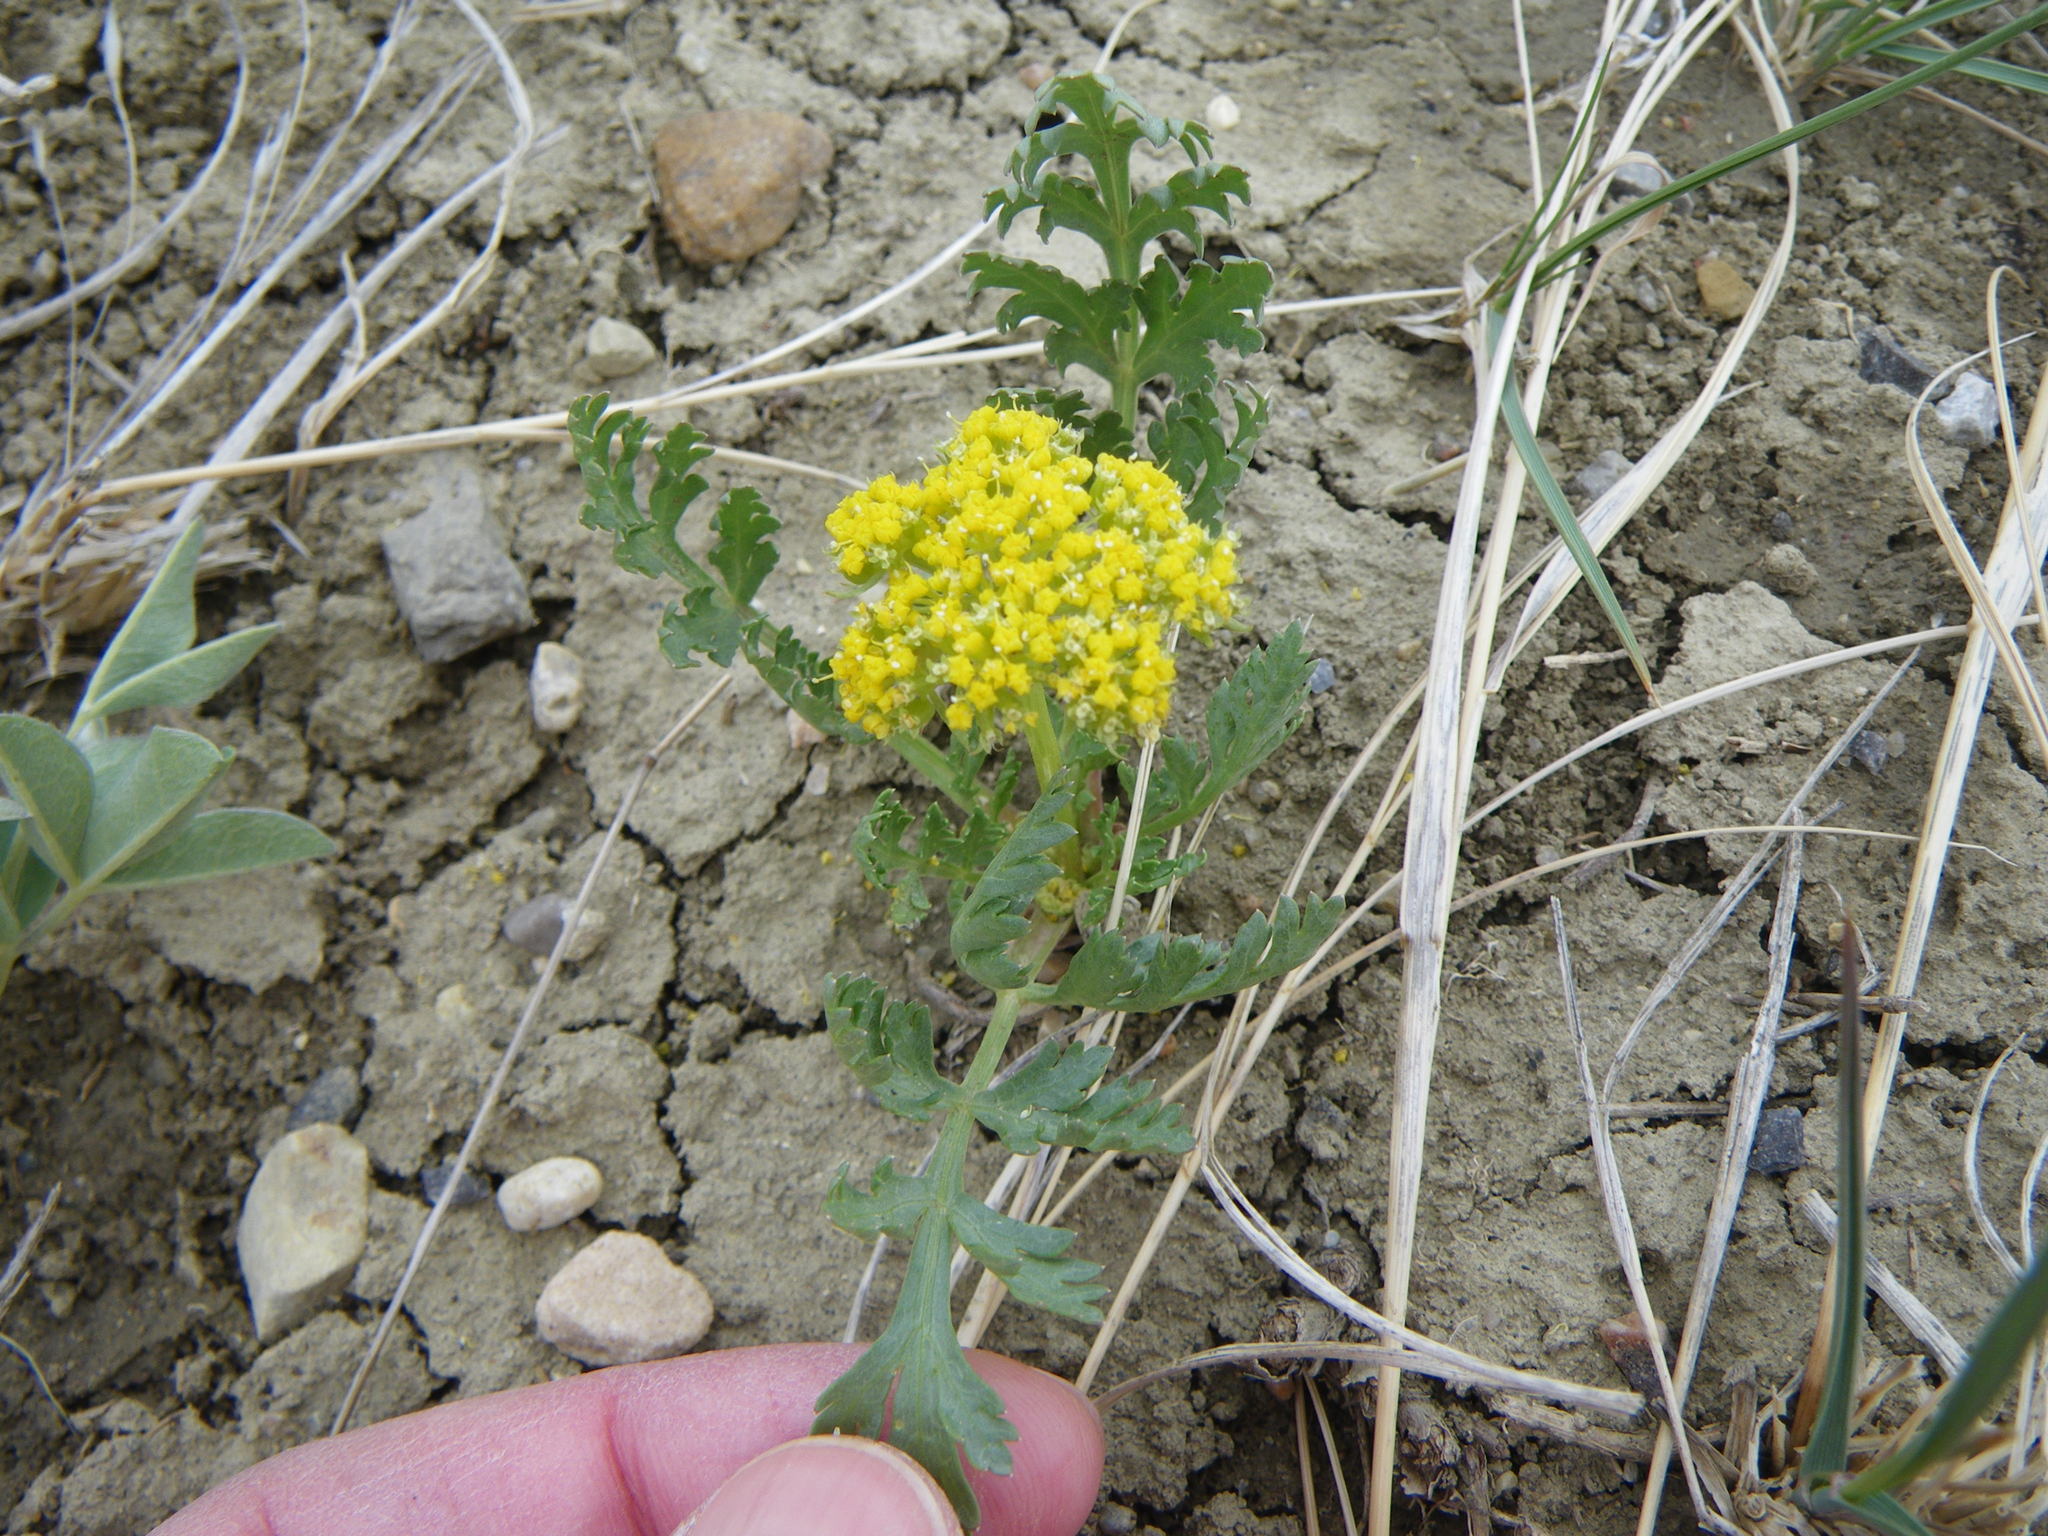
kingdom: Plantae
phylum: Tracheophyta
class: Magnoliopsida
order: Apiales
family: Apiaceae
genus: Musineon
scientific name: Musineon divaricatum
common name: Plains musineon
